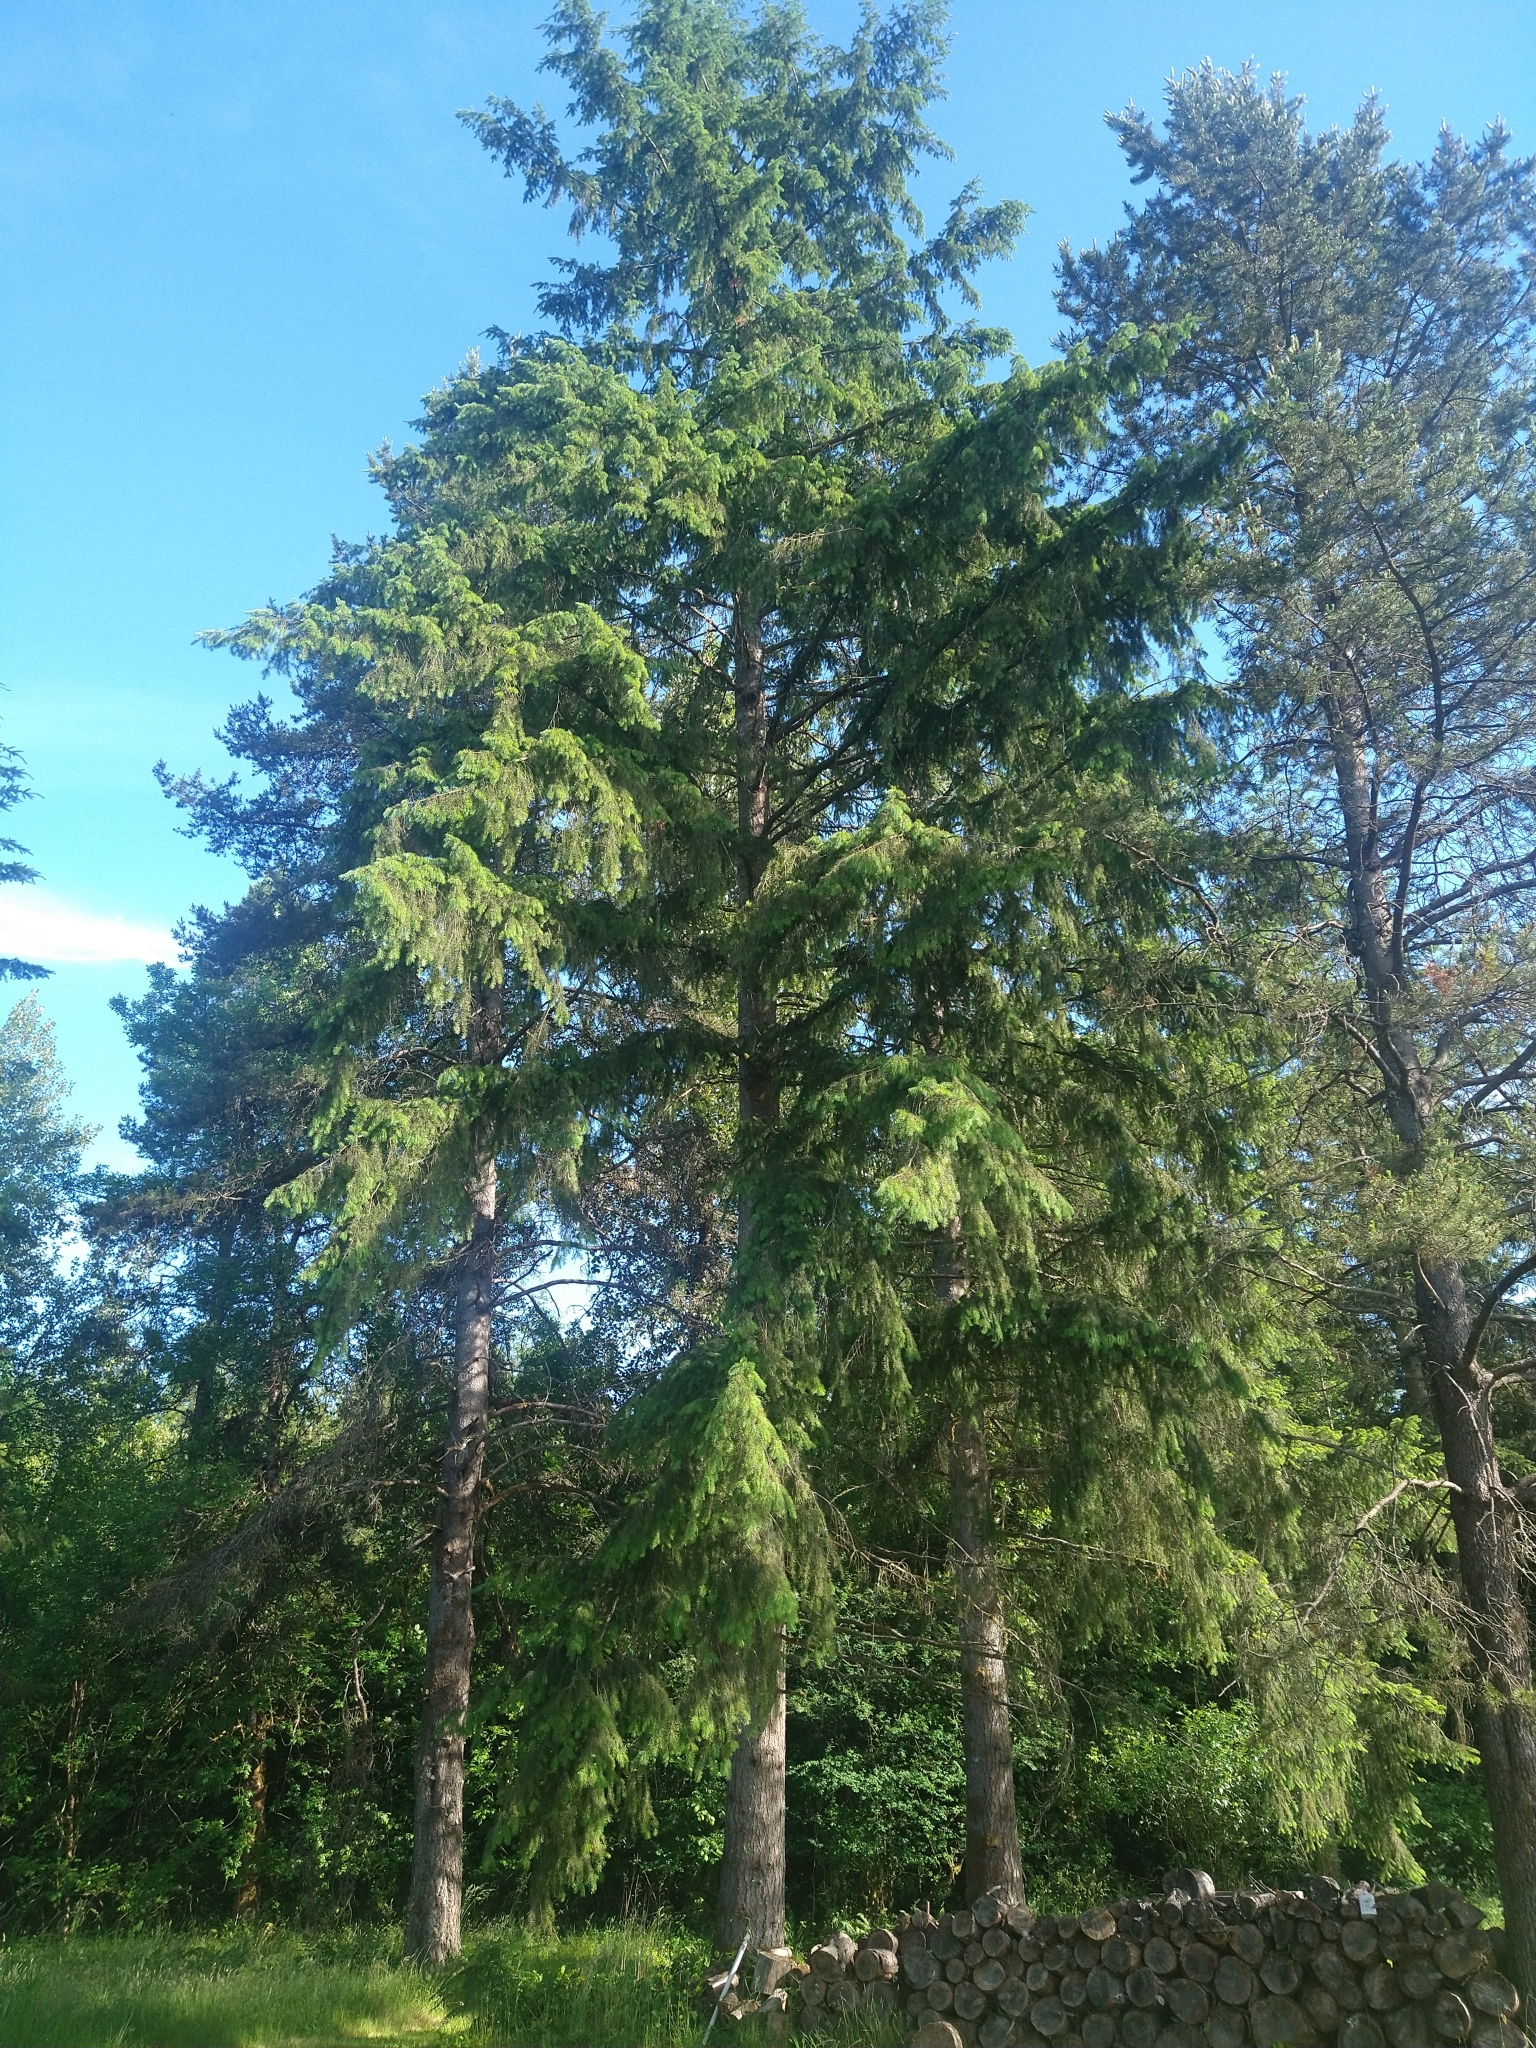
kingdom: Plantae
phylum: Tracheophyta
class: Pinopsida
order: Pinales
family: Pinaceae
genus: Pseudotsuga
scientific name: Pseudotsuga menziesii
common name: Douglas fir
